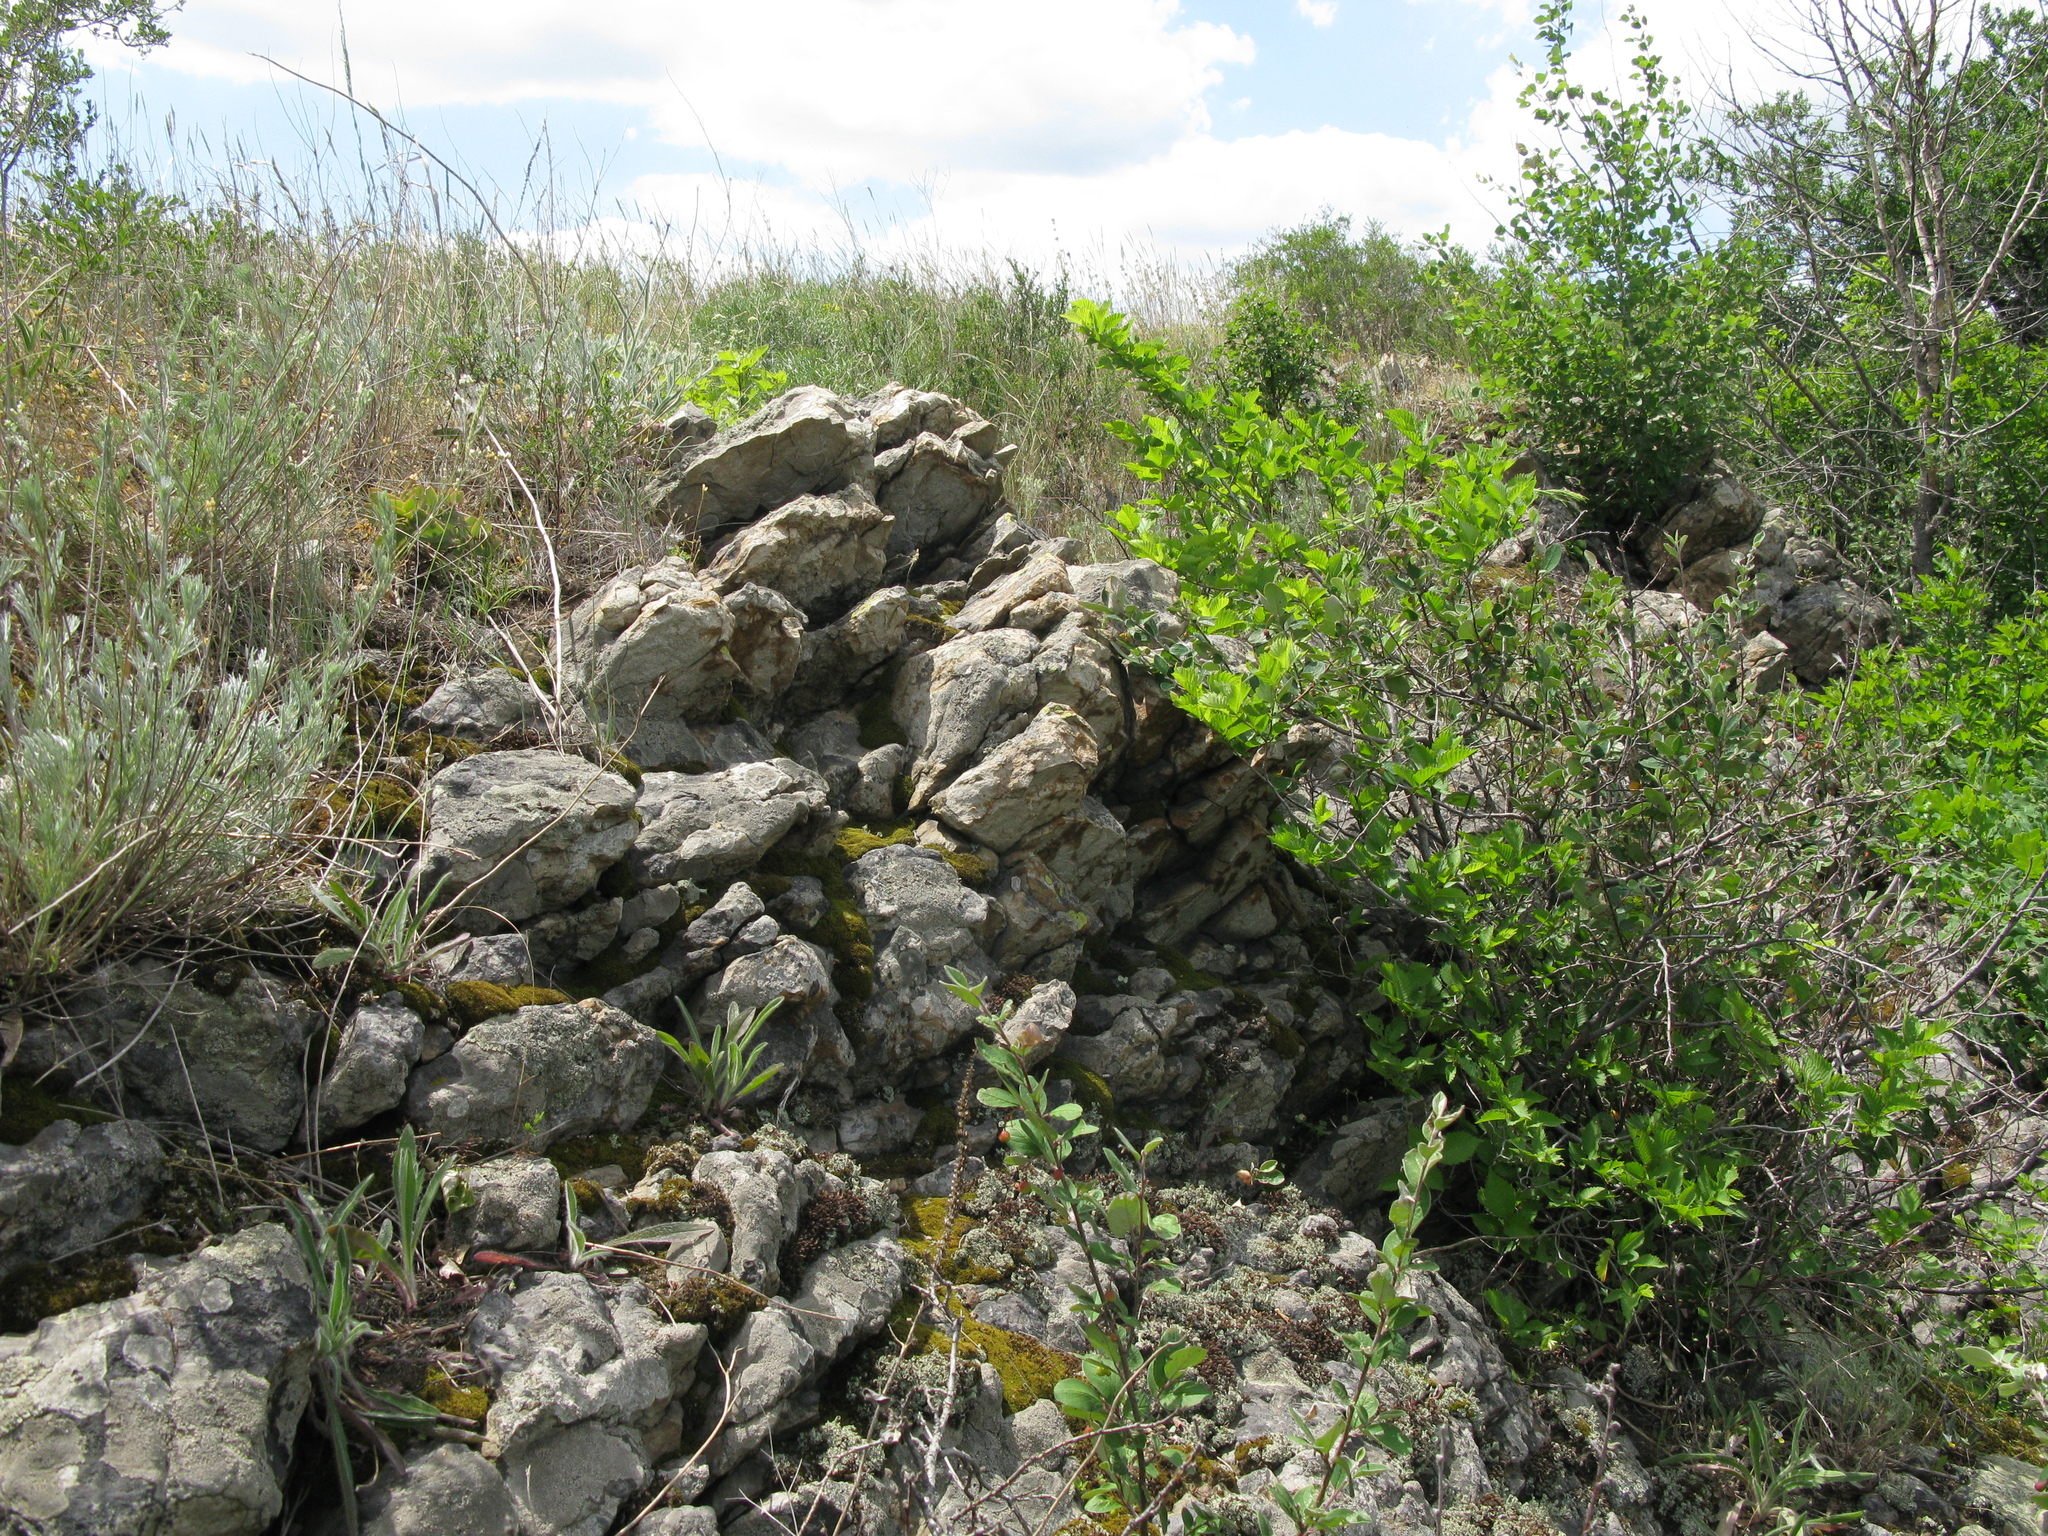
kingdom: Plantae
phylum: Tracheophyta
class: Magnoliopsida
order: Rosales
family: Rosaceae
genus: Cotoneaster
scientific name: Cotoneaster melanocarpus
